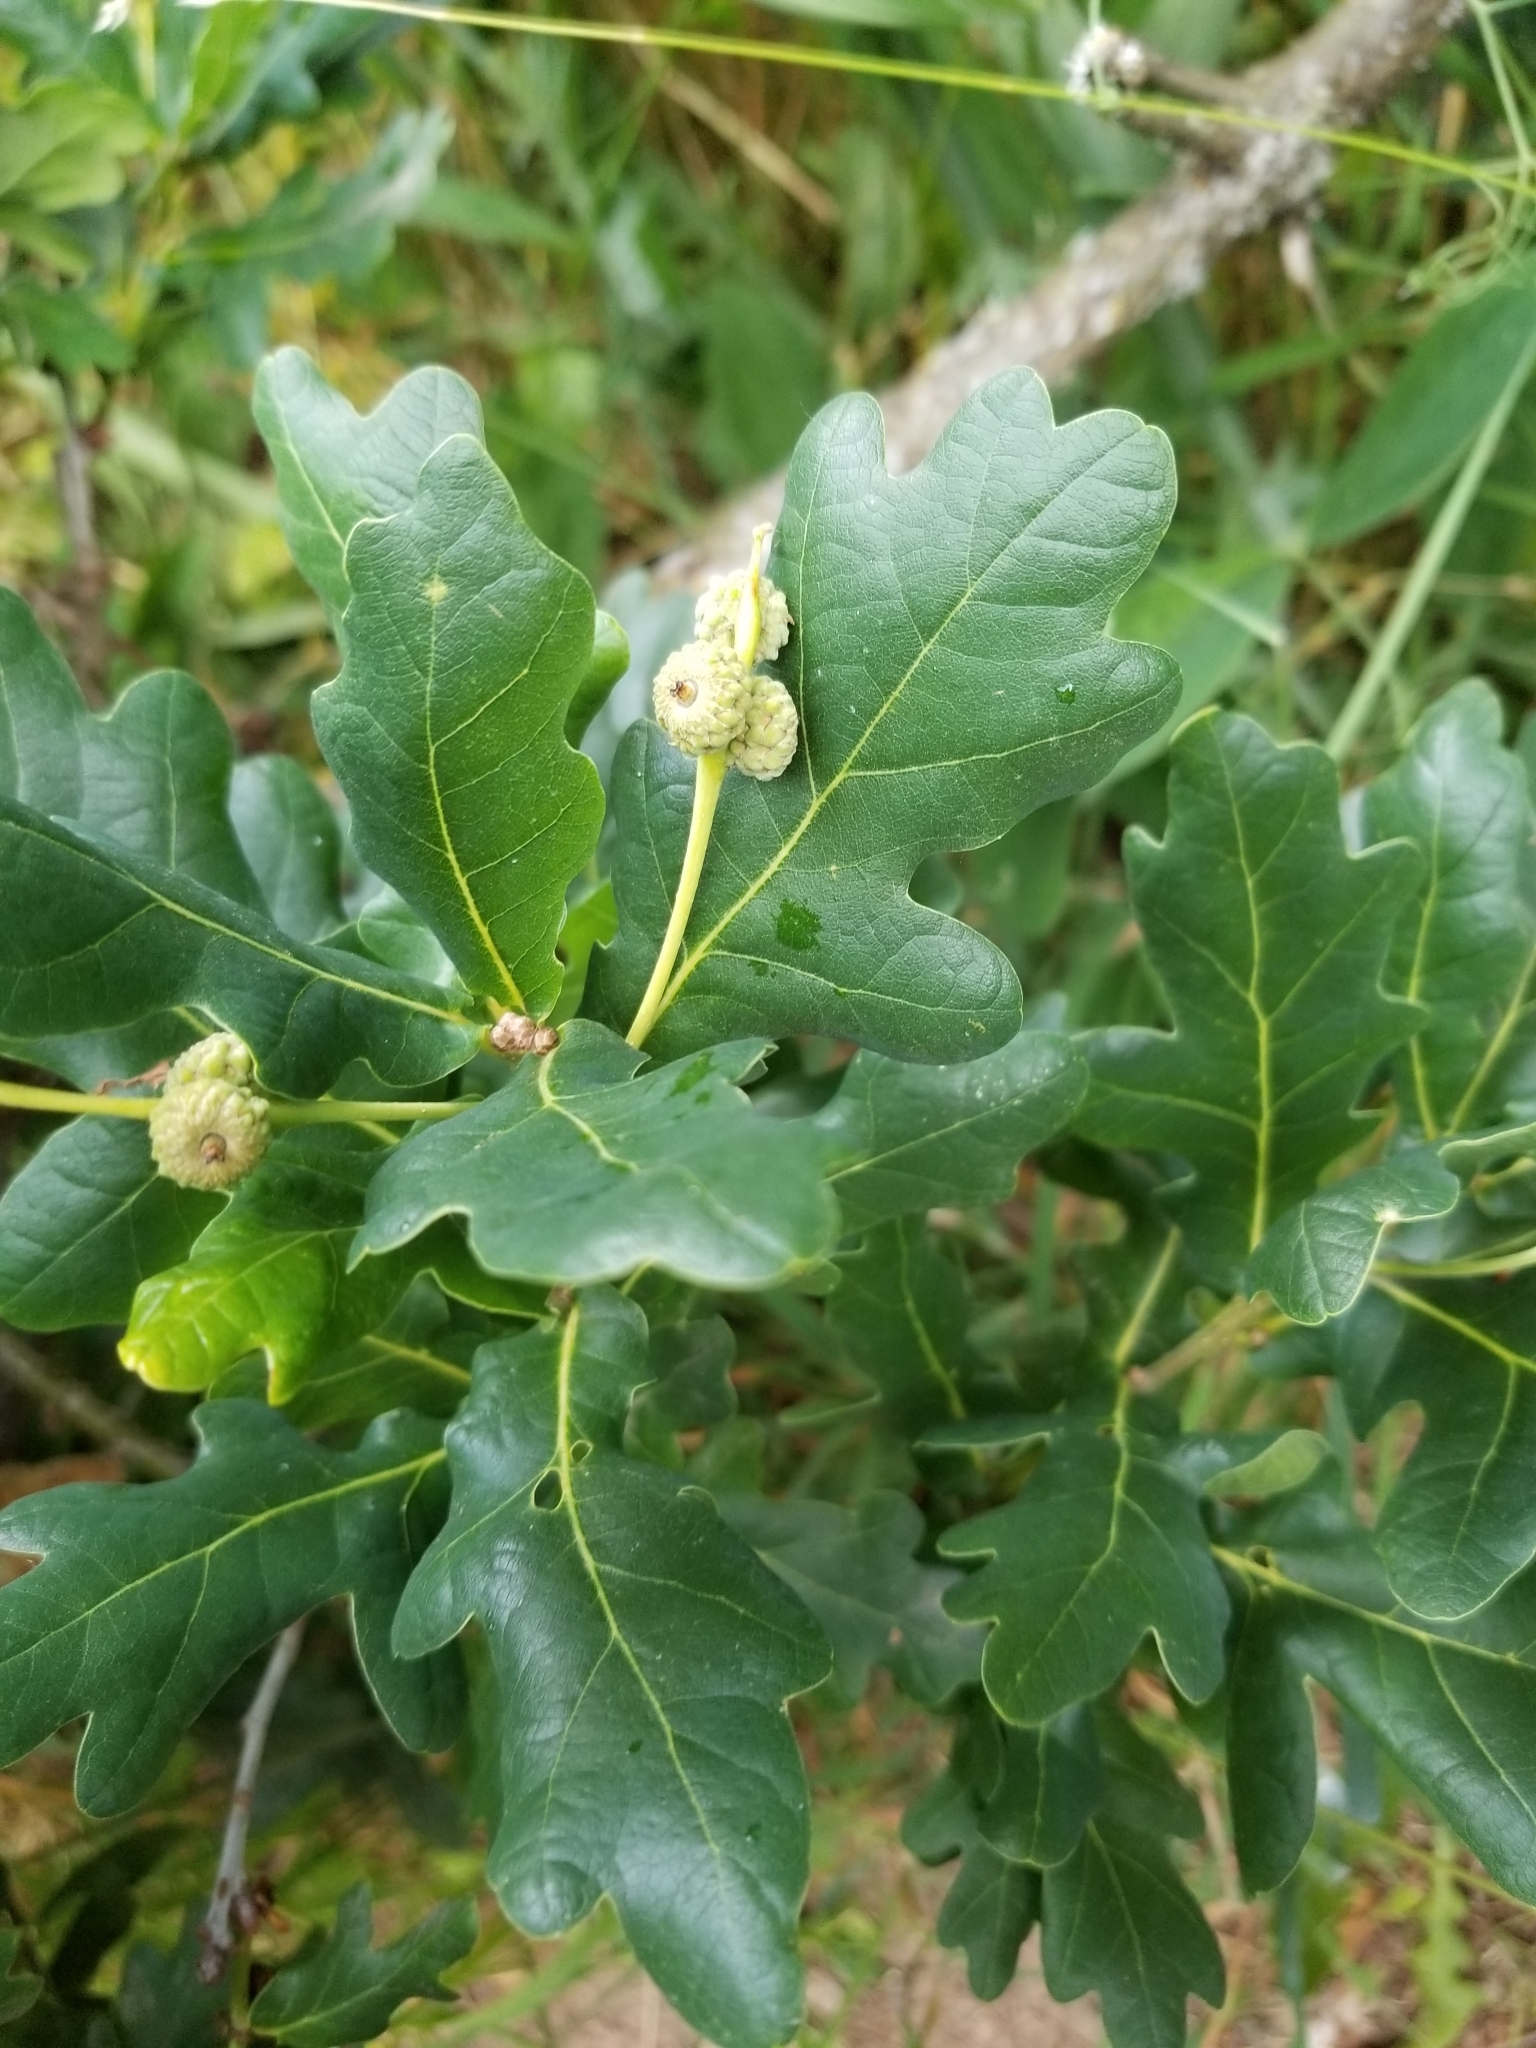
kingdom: Plantae
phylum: Tracheophyta
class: Magnoliopsida
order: Fagales
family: Fagaceae
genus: Quercus
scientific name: Quercus robur
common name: Pedunculate oak
